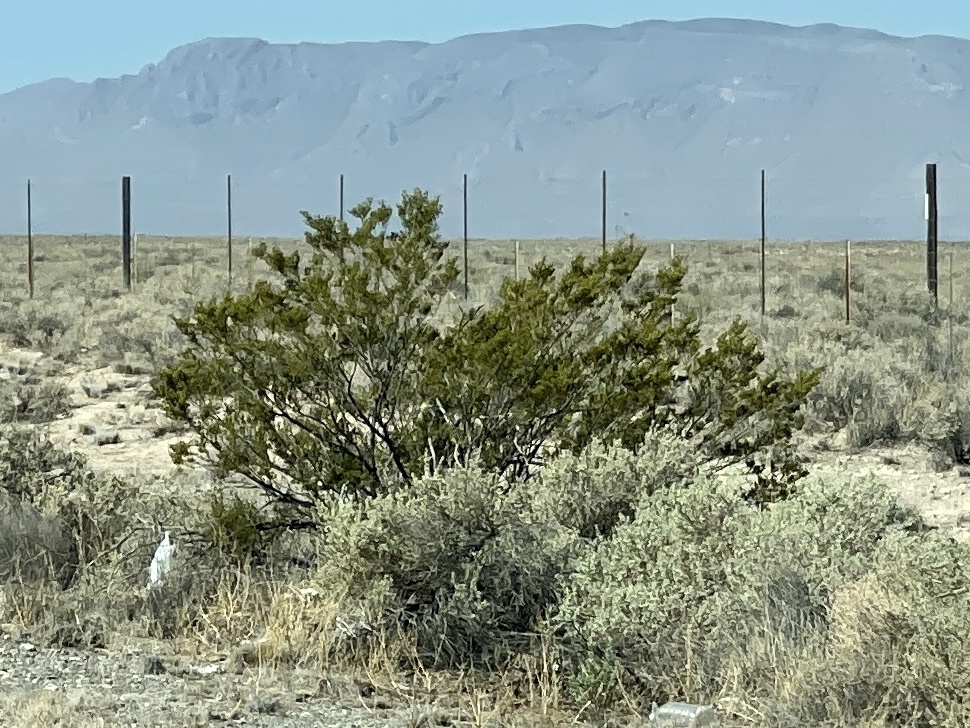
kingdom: Plantae
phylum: Tracheophyta
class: Magnoliopsida
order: Zygophyllales
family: Zygophyllaceae
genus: Larrea
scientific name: Larrea tridentata
